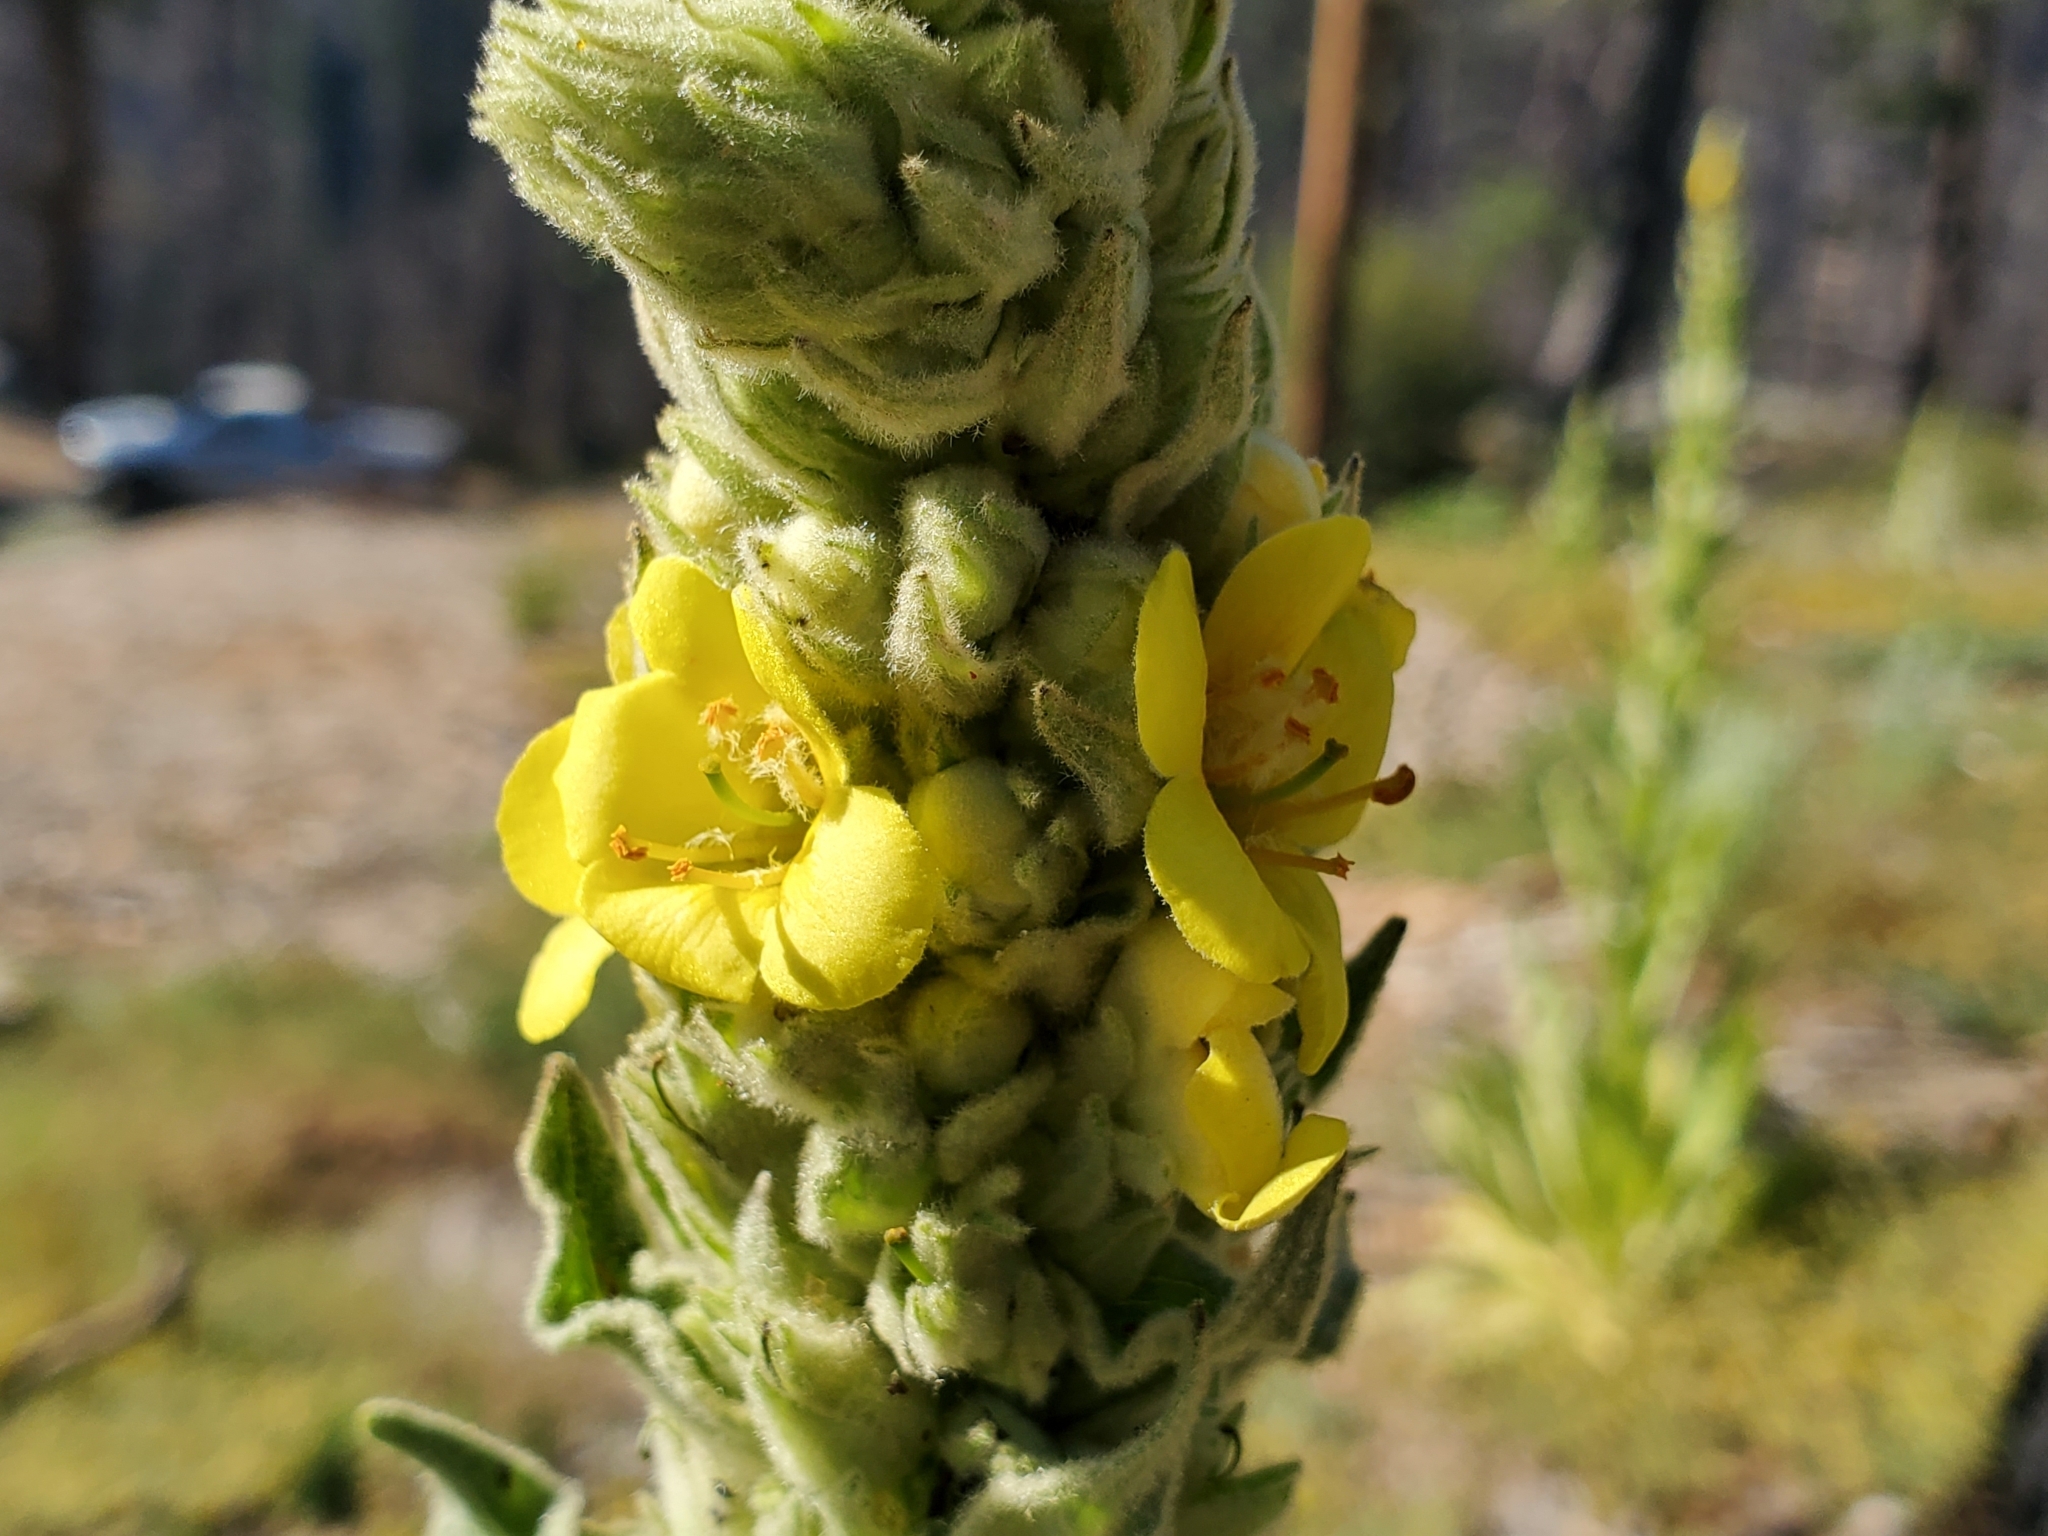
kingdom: Plantae
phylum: Tracheophyta
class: Magnoliopsida
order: Lamiales
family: Scrophulariaceae
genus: Verbascum
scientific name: Verbascum thapsus
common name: Common mullein
